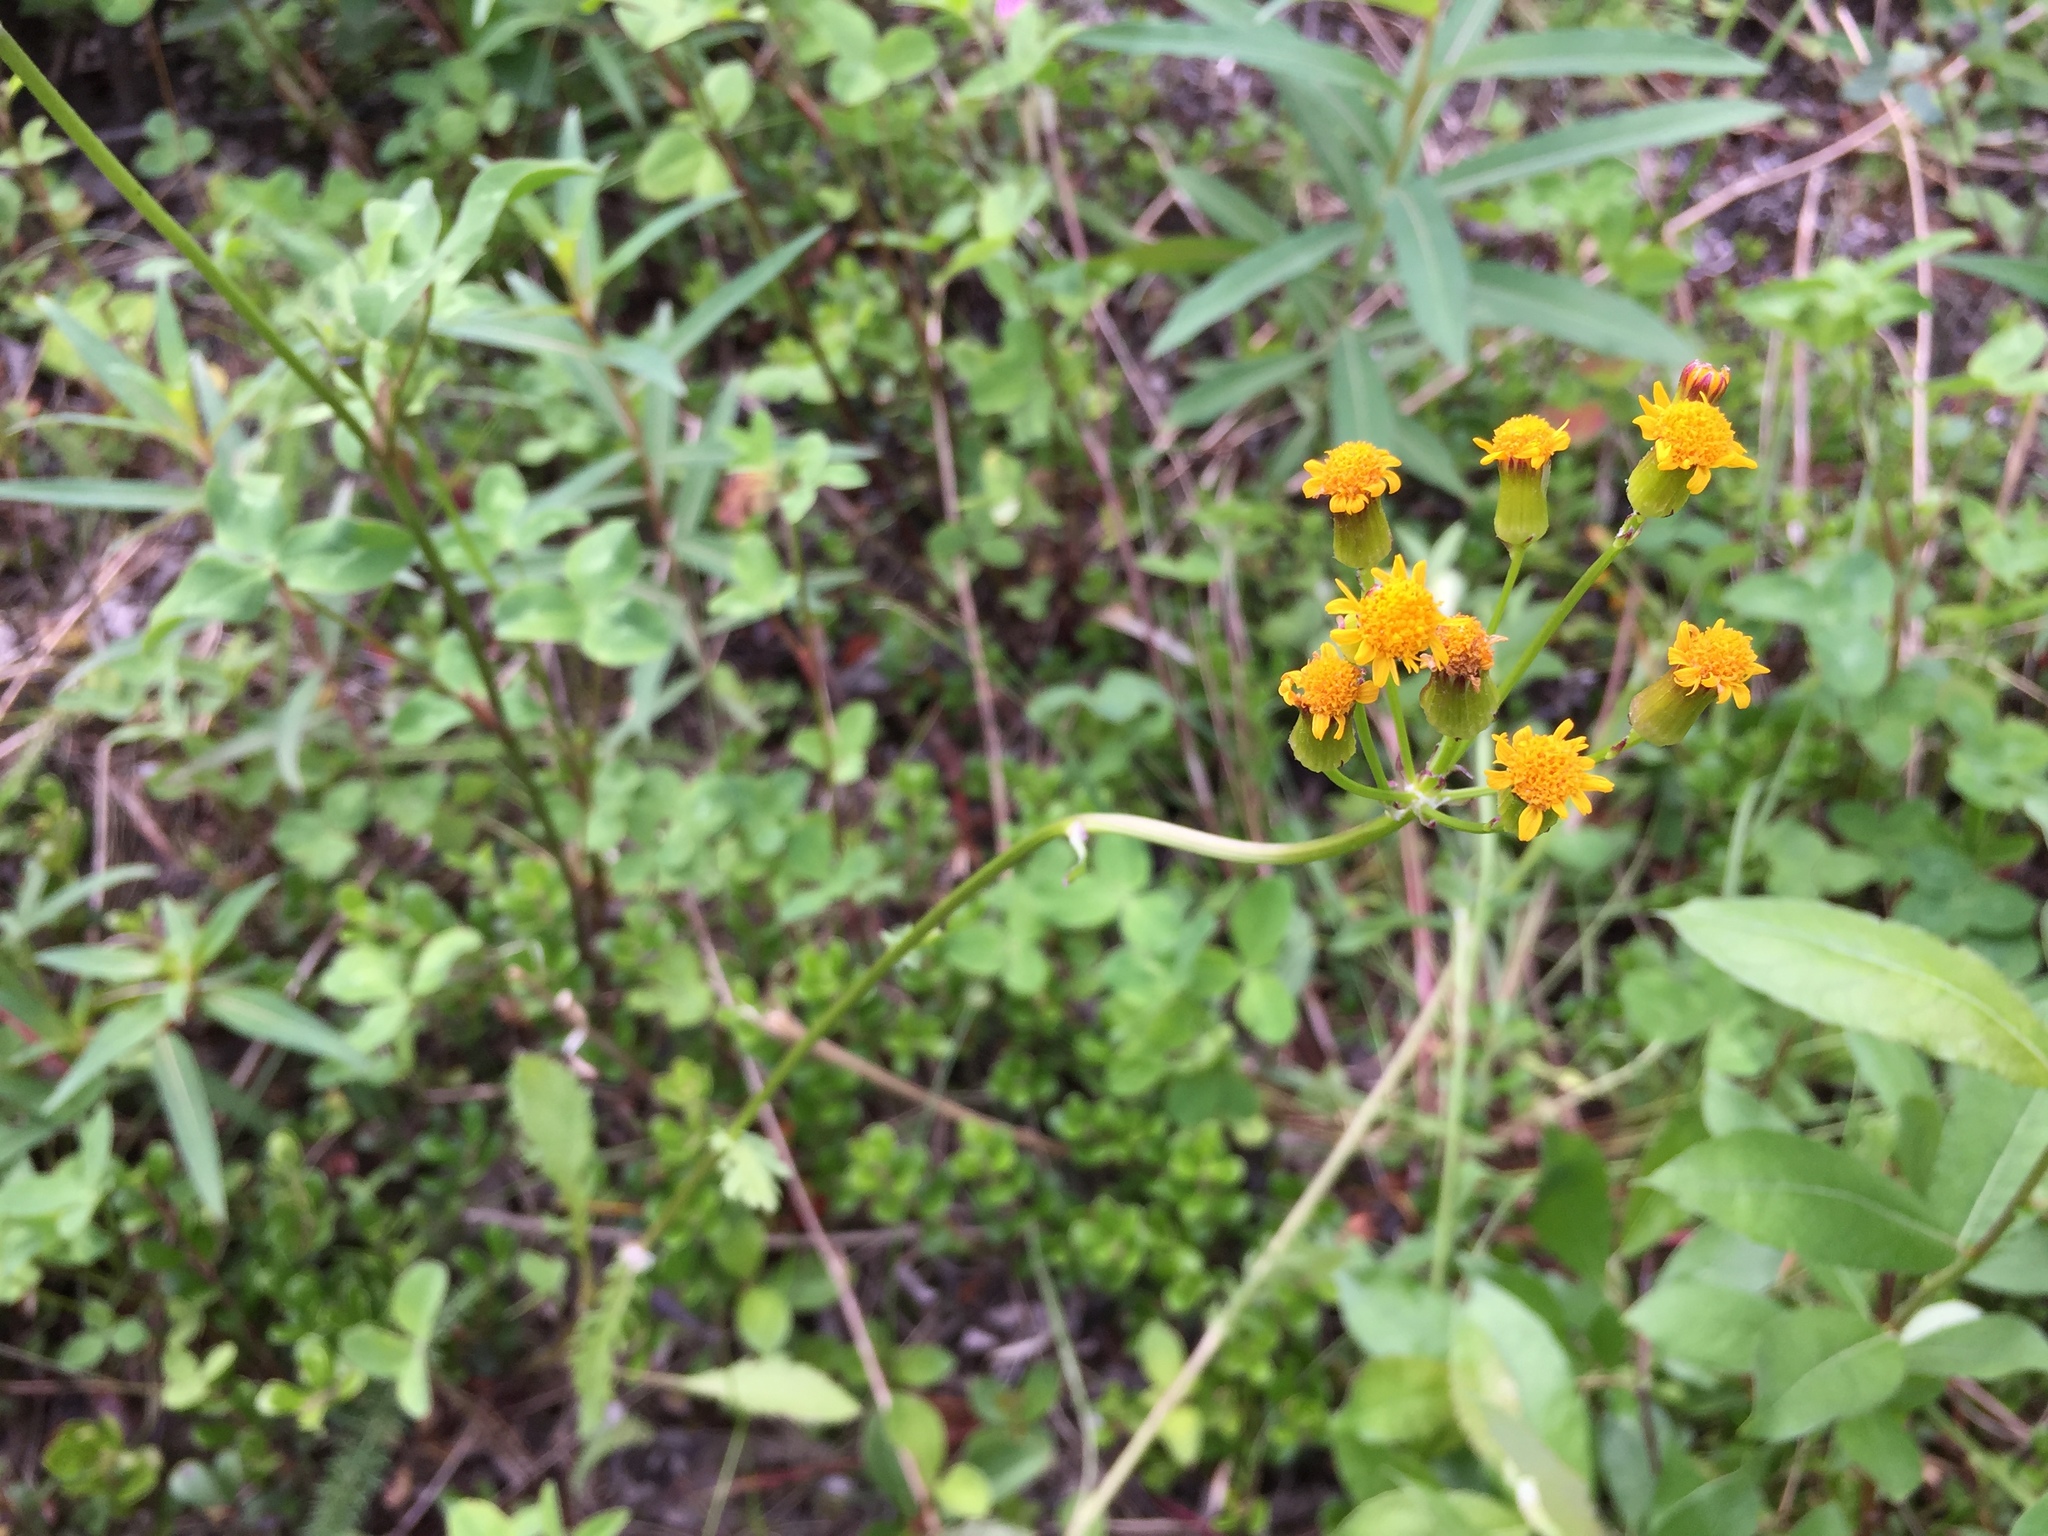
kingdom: Plantae
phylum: Tracheophyta
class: Magnoliopsida
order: Asterales
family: Asteraceae
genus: Packera
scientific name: Packera indecora
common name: Elegant groundsel
